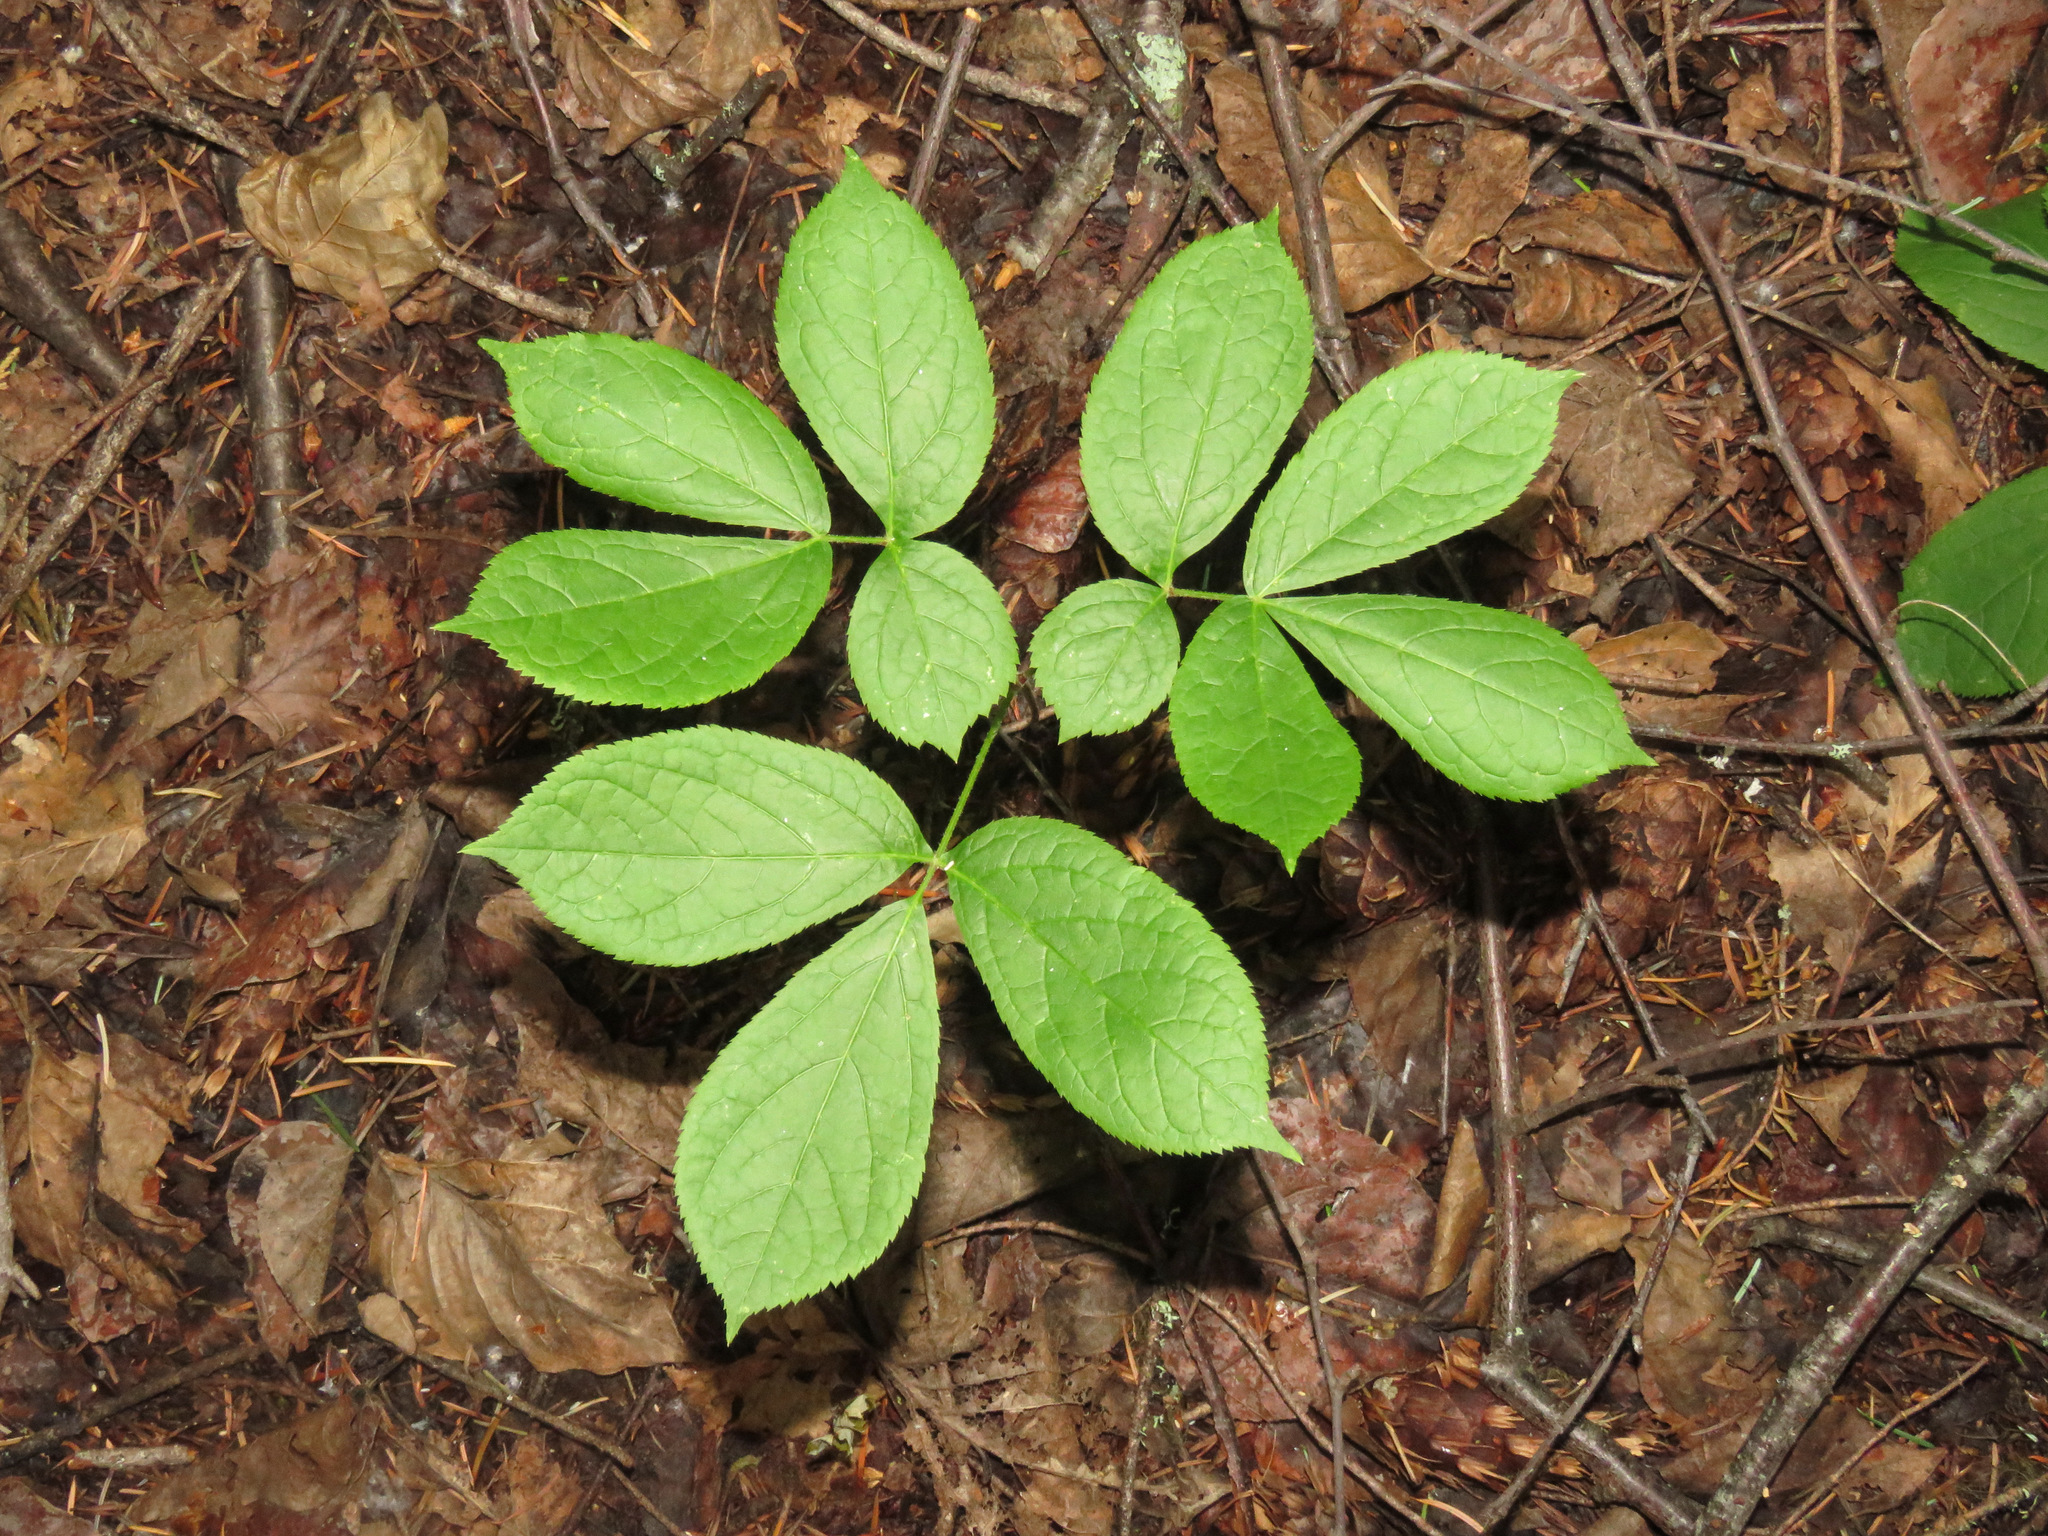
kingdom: Plantae
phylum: Tracheophyta
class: Magnoliopsida
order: Apiales
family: Araliaceae
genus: Aralia
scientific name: Aralia nudicaulis
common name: Wild sarsaparilla
